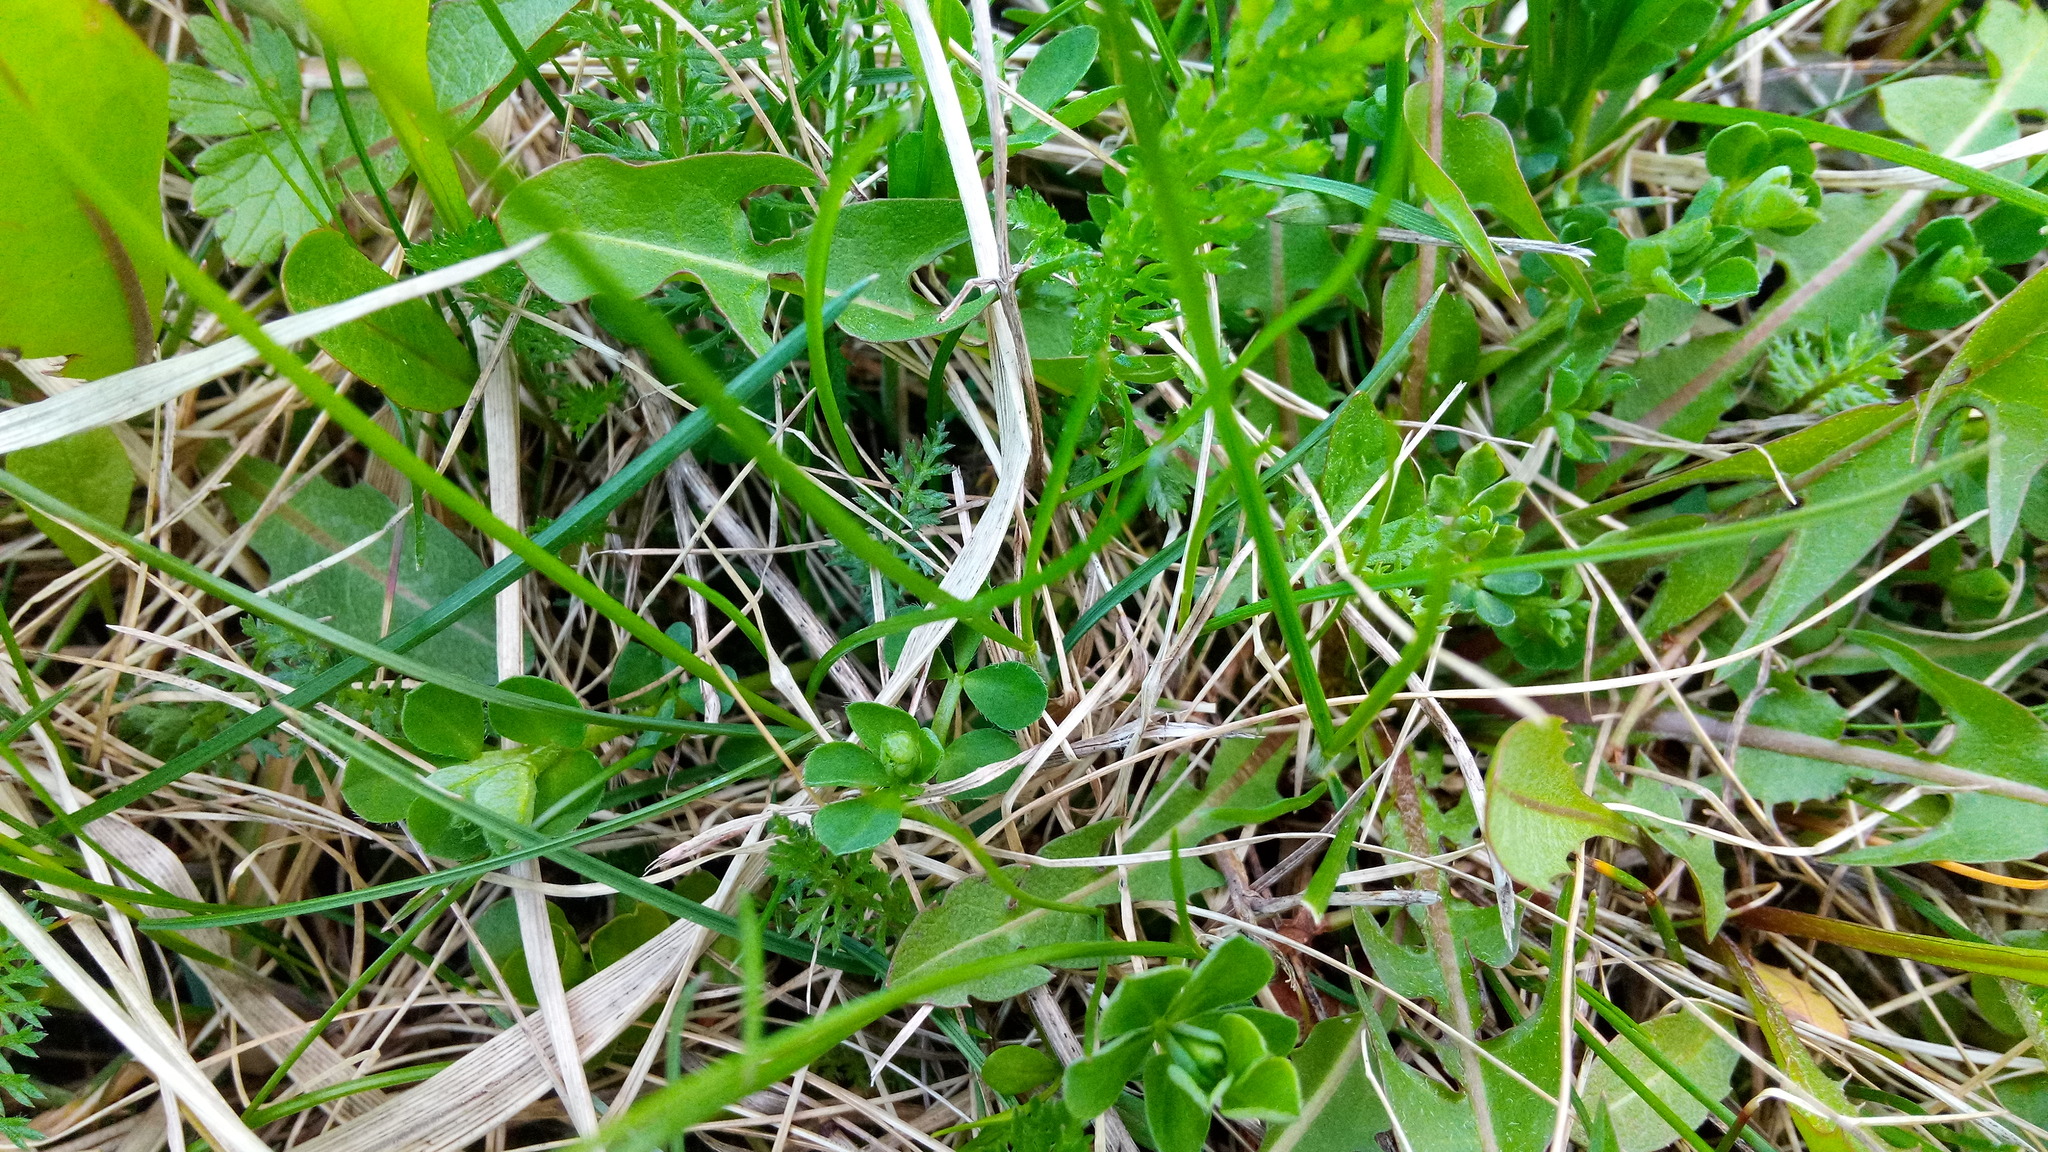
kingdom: Plantae
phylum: Tracheophyta
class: Magnoliopsida
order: Fabales
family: Fabaceae
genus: Lotus
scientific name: Lotus corniculatus
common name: Common bird's-foot-trefoil
